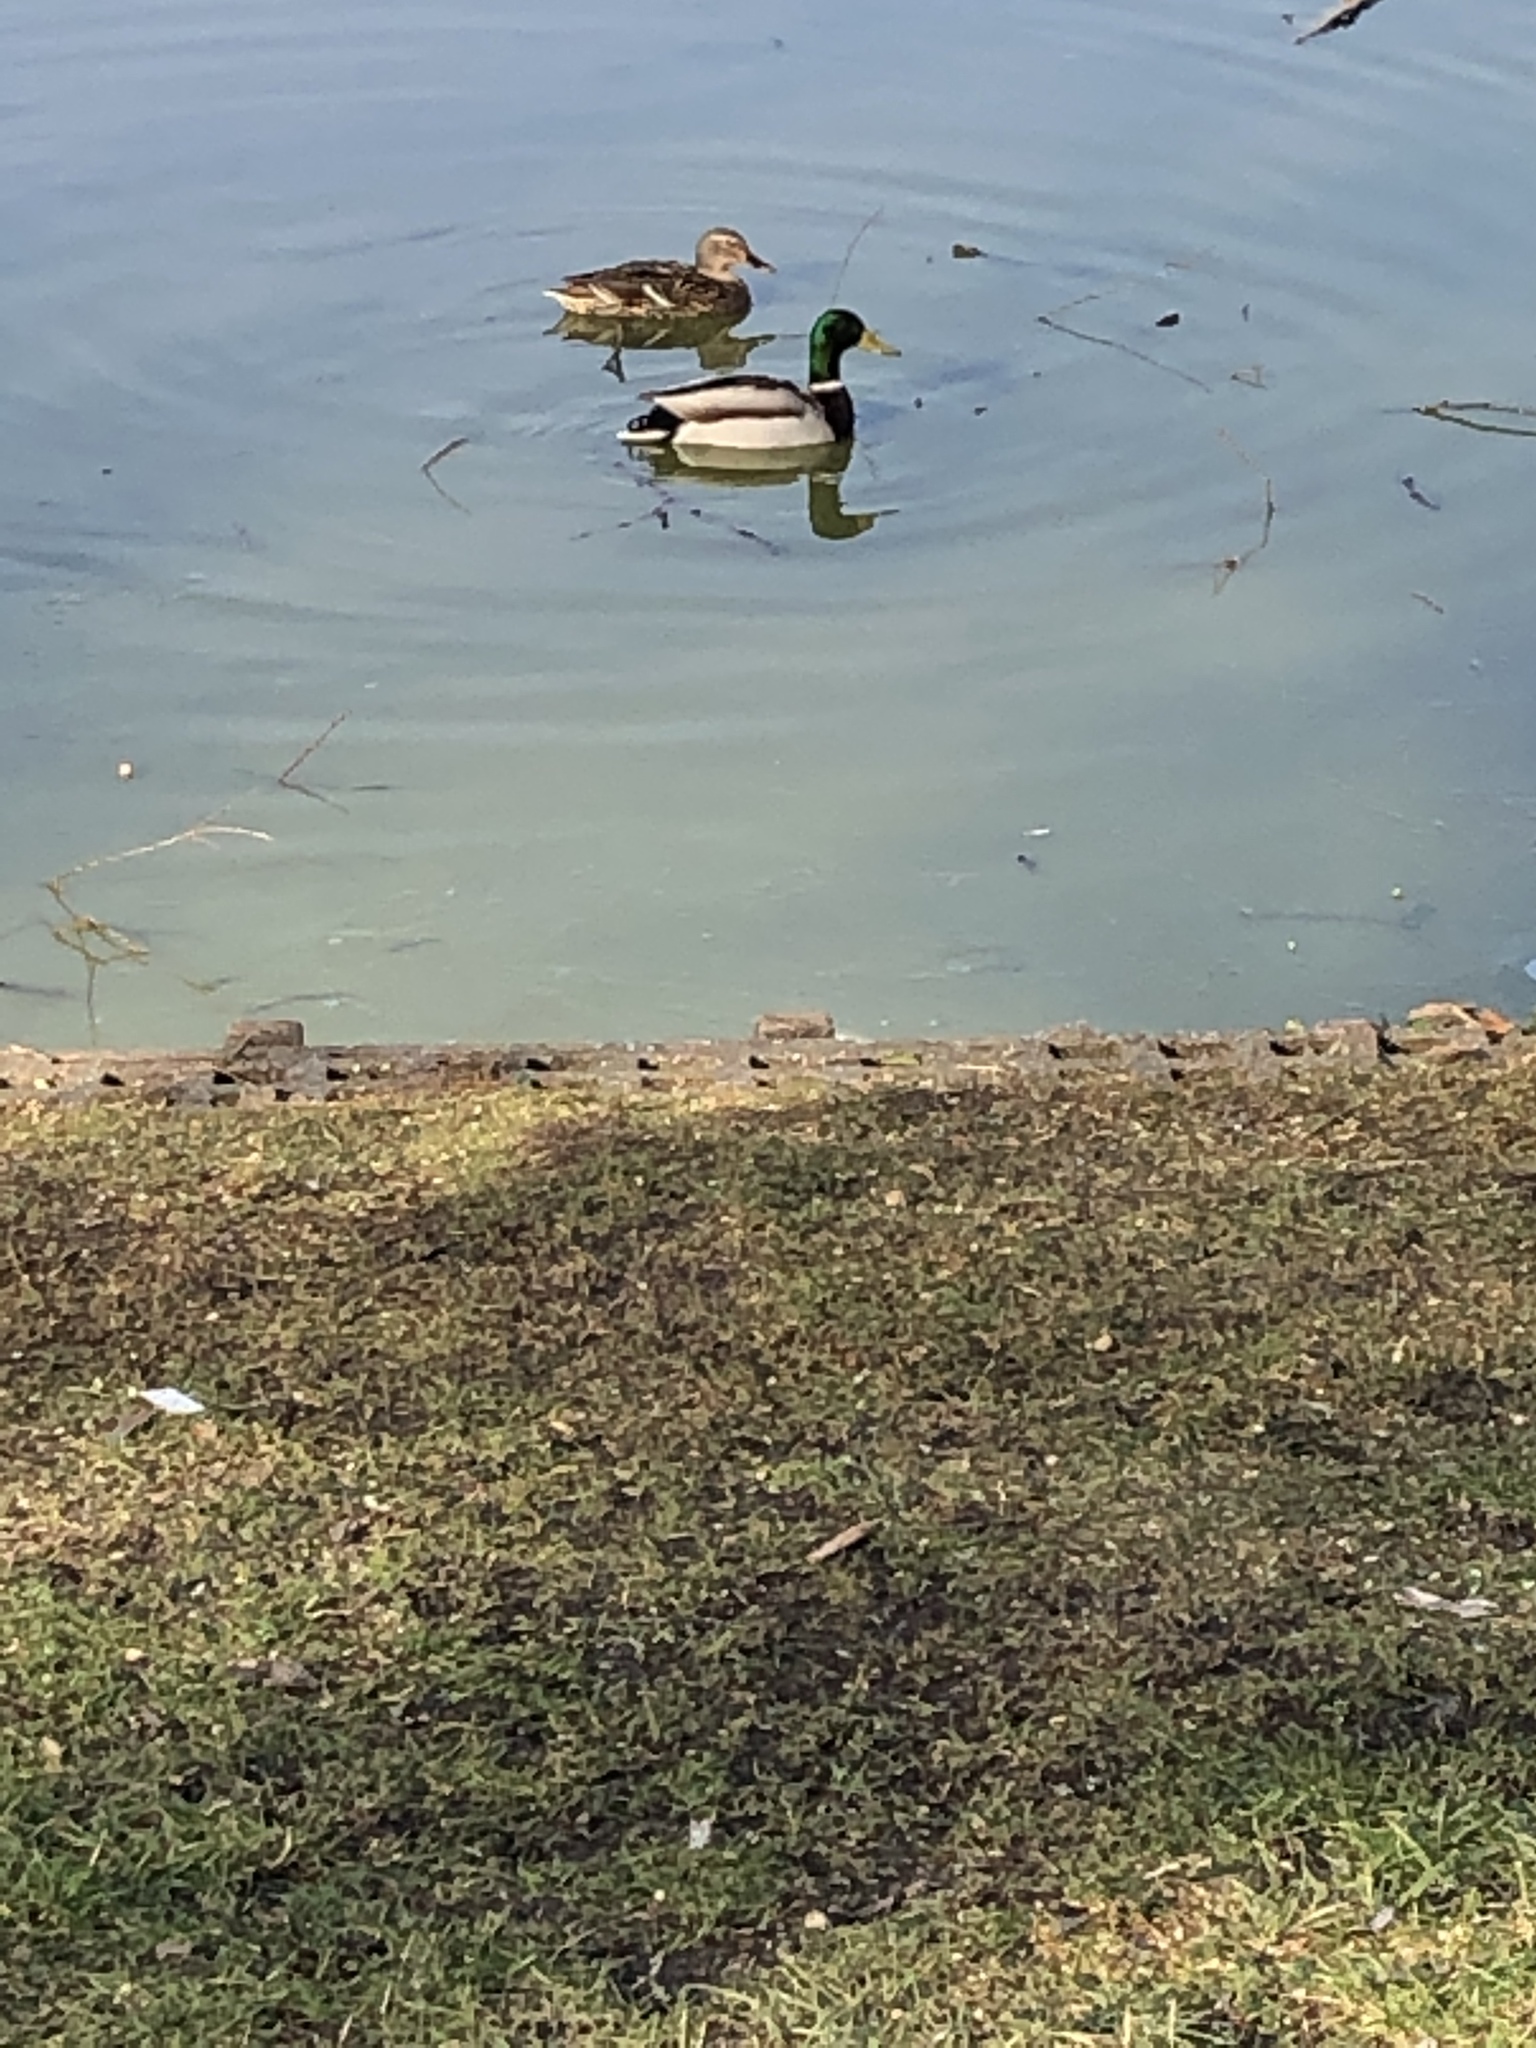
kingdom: Animalia
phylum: Chordata
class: Aves
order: Anseriformes
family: Anatidae
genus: Anas
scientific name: Anas platyrhynchos
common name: Mallard
